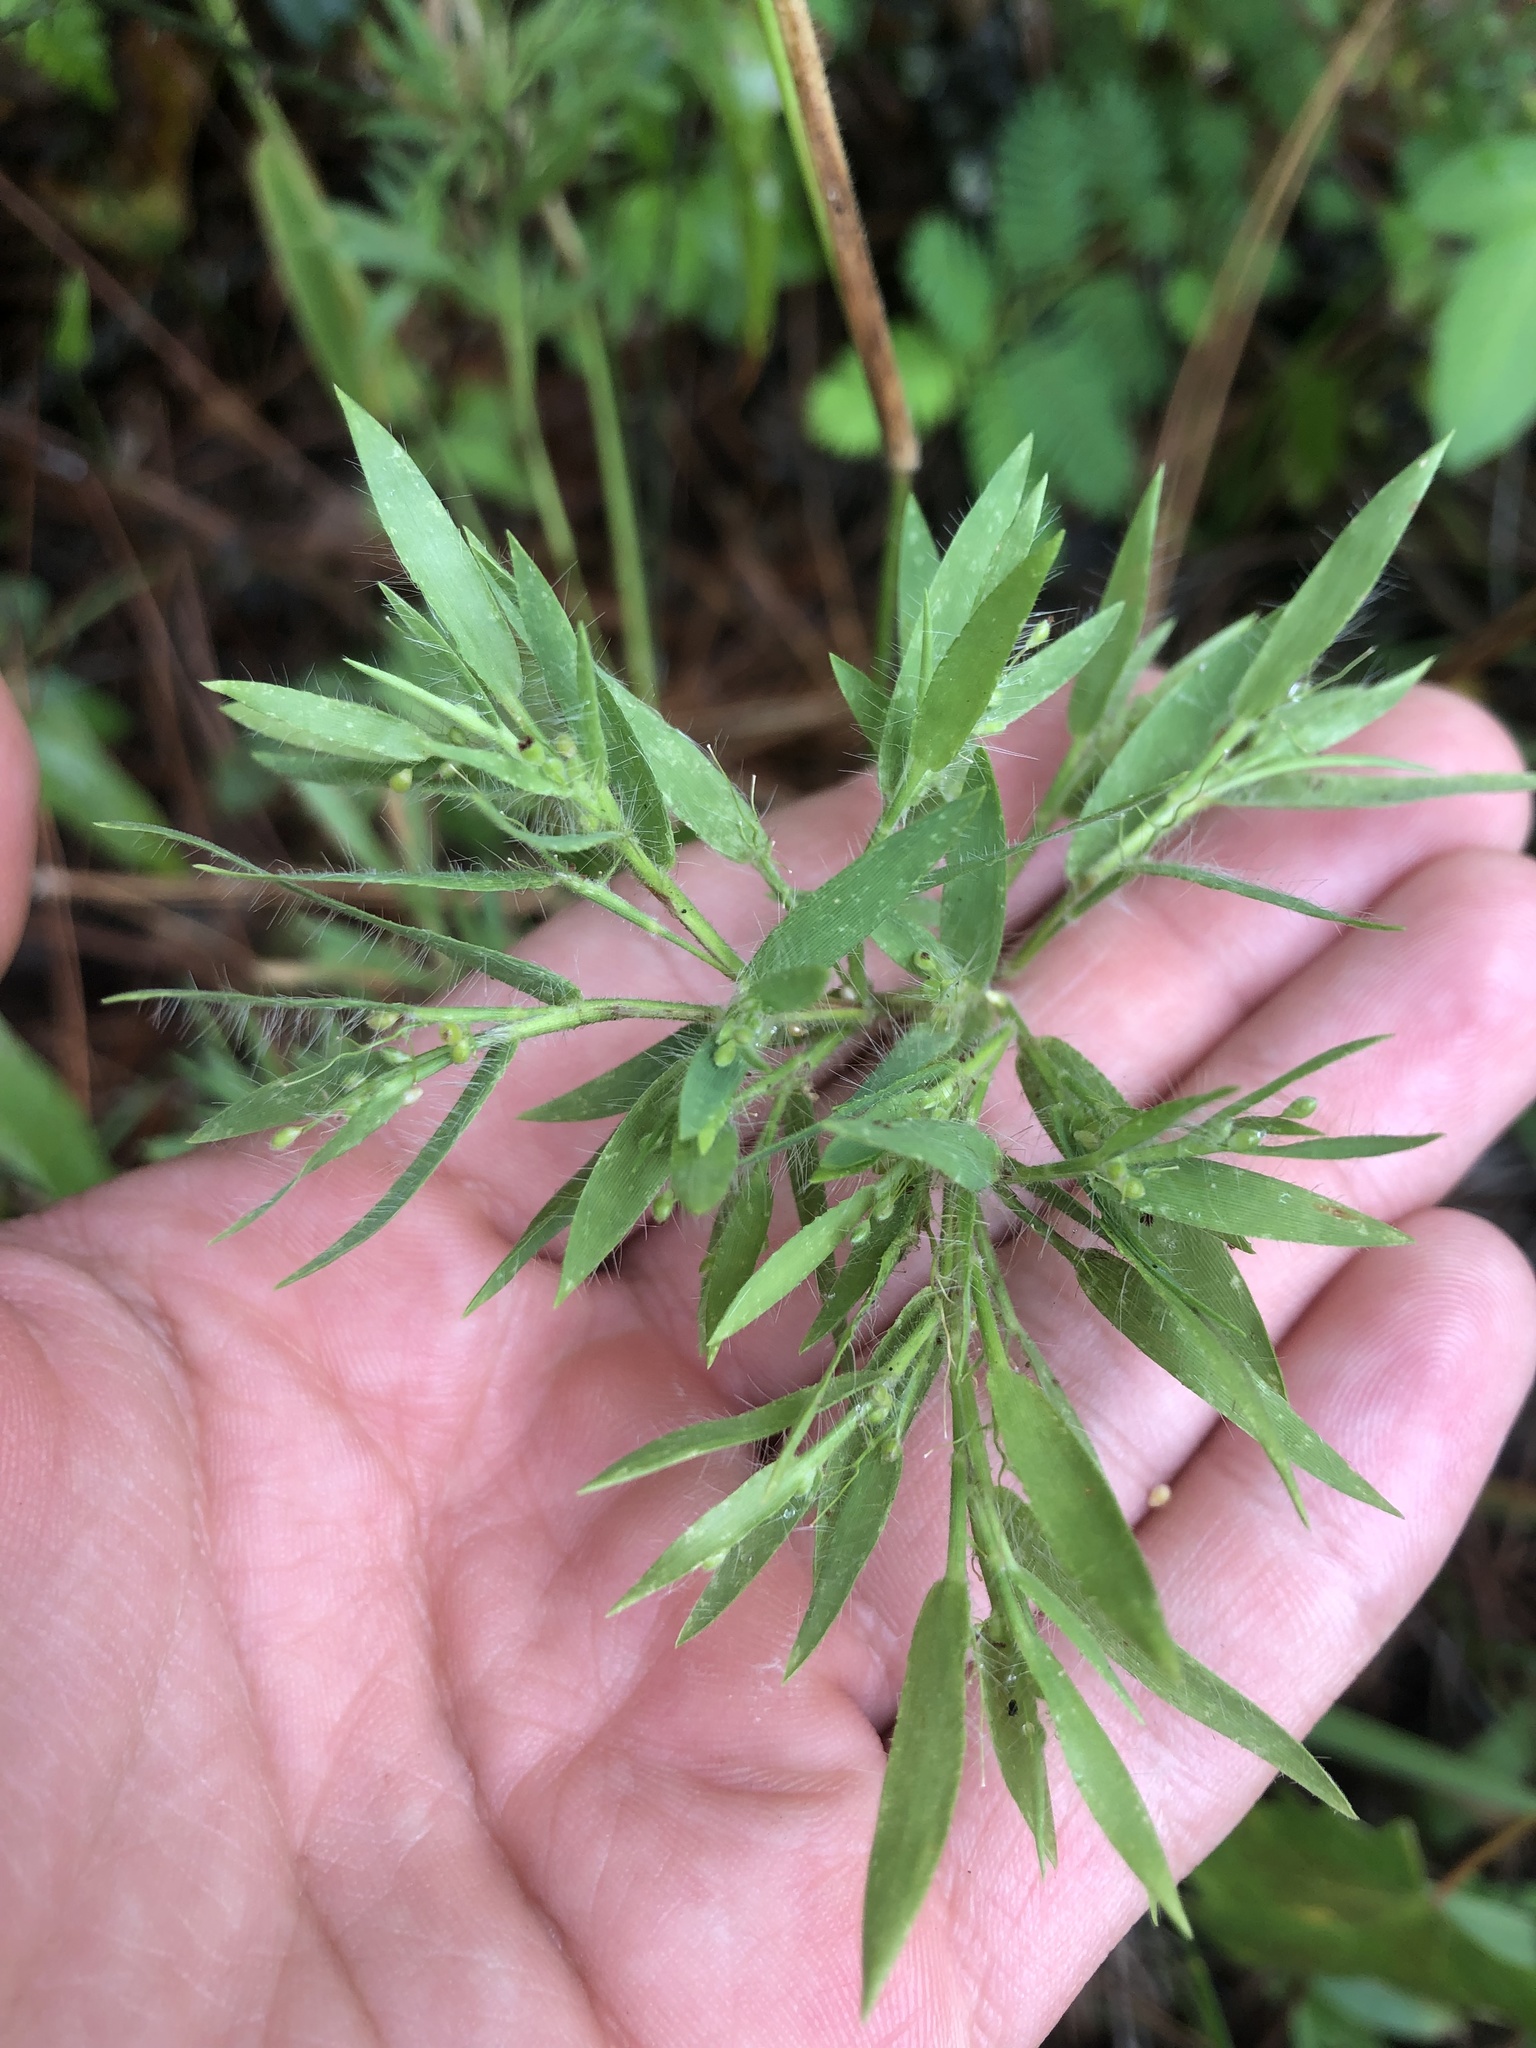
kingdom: Plantae
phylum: Tracheophyta
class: Liliopsida
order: Poales
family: Poaceae
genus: Dichanthelium
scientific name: Dichanthelium acuminatum
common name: Hairy panic grass
